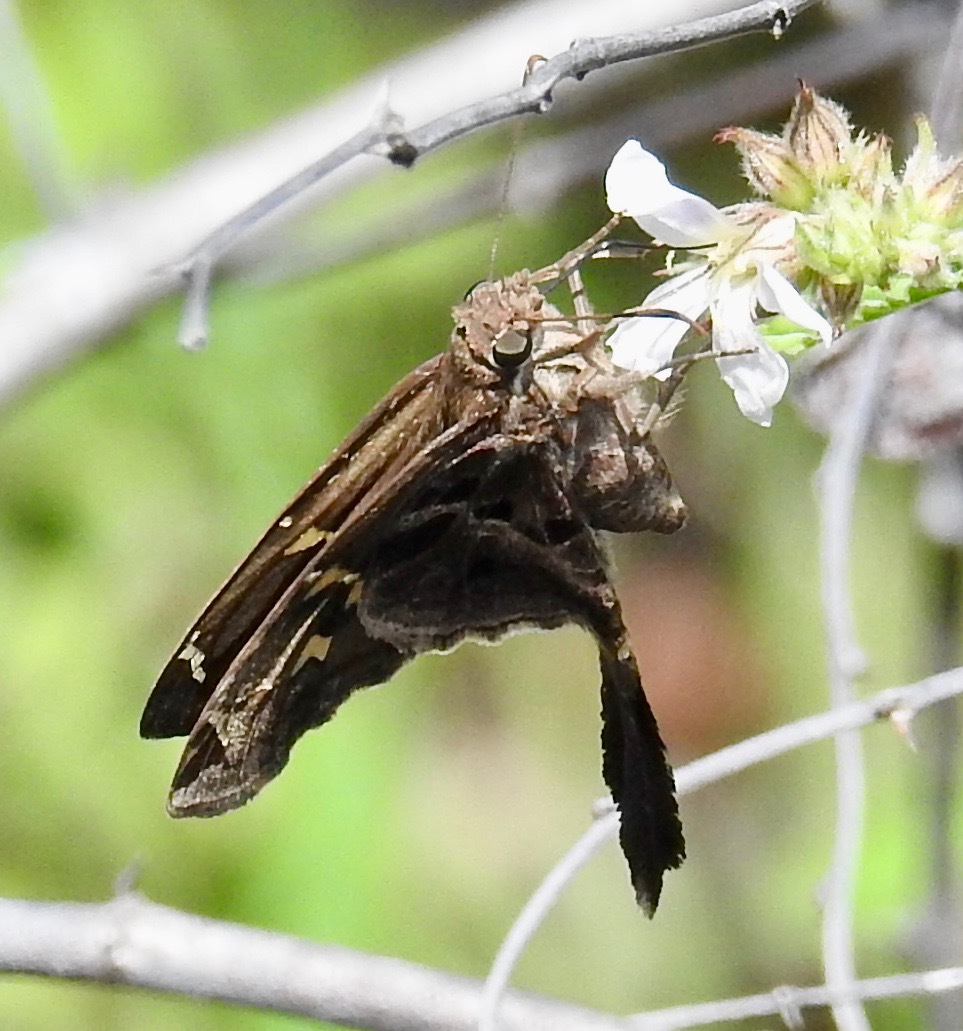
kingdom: Animalia
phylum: Arthropoda
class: Insecta
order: Lepidoptera
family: Hesperiidae
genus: Chioides
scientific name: Chioides catillus
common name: Silverbanded skipper
